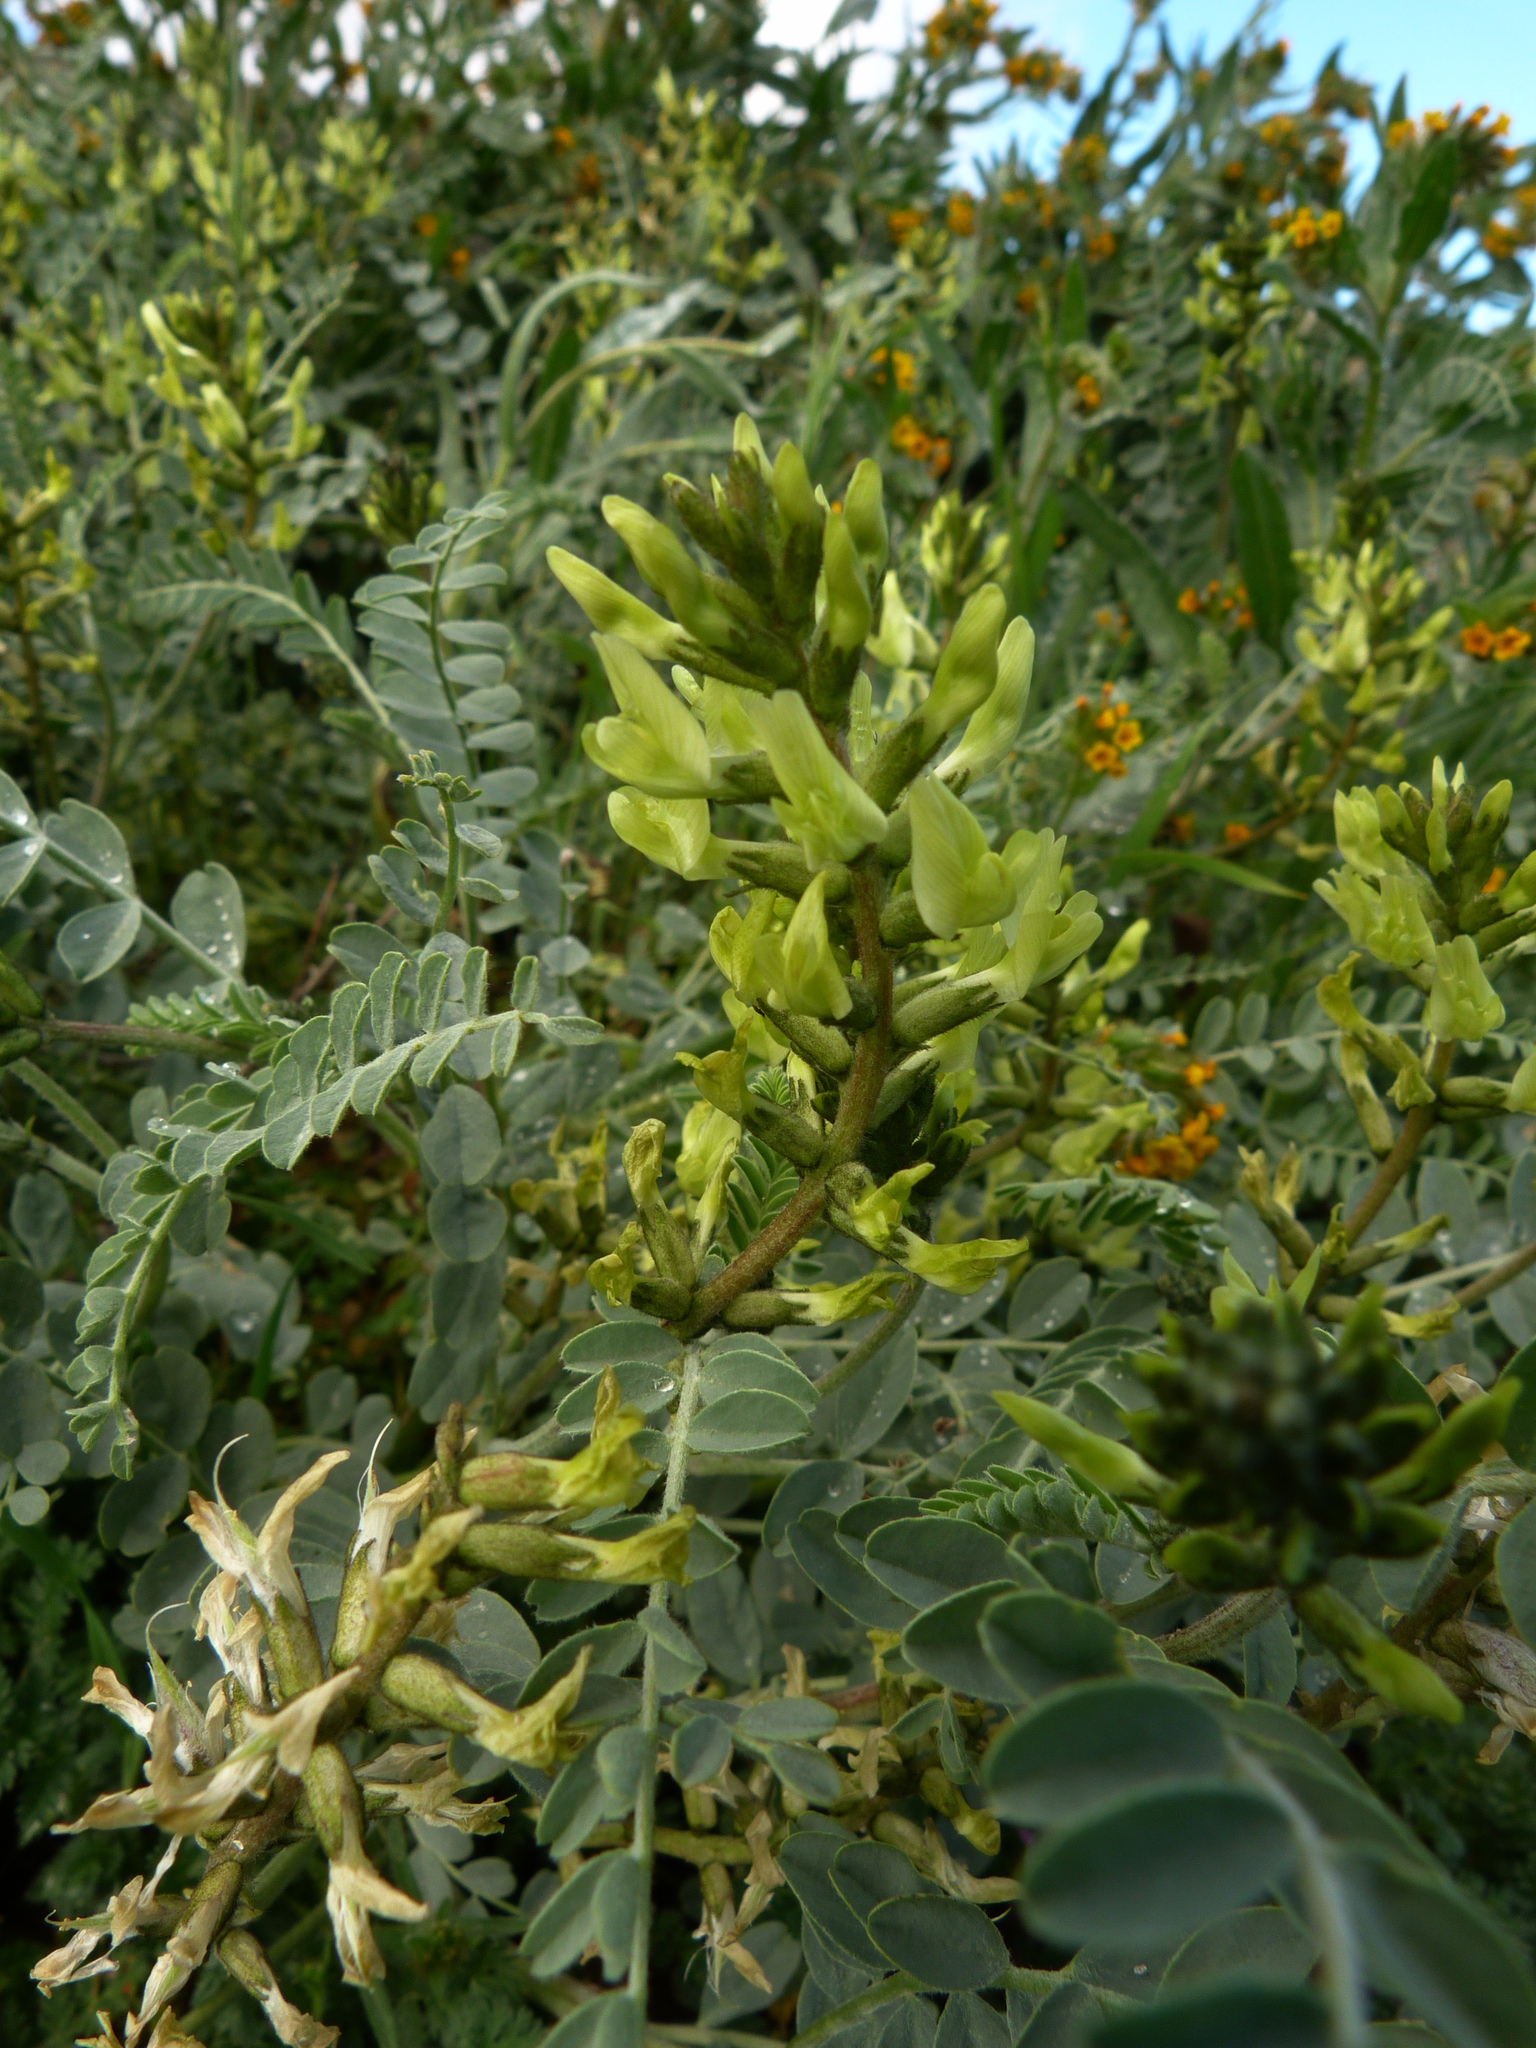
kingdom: Plantae
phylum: Tracheophyta
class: Magnoliopsida
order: Fabales
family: Fabaceae
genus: Astragalus
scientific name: Astragalus lentiginosus
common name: Freckled milkvetch
